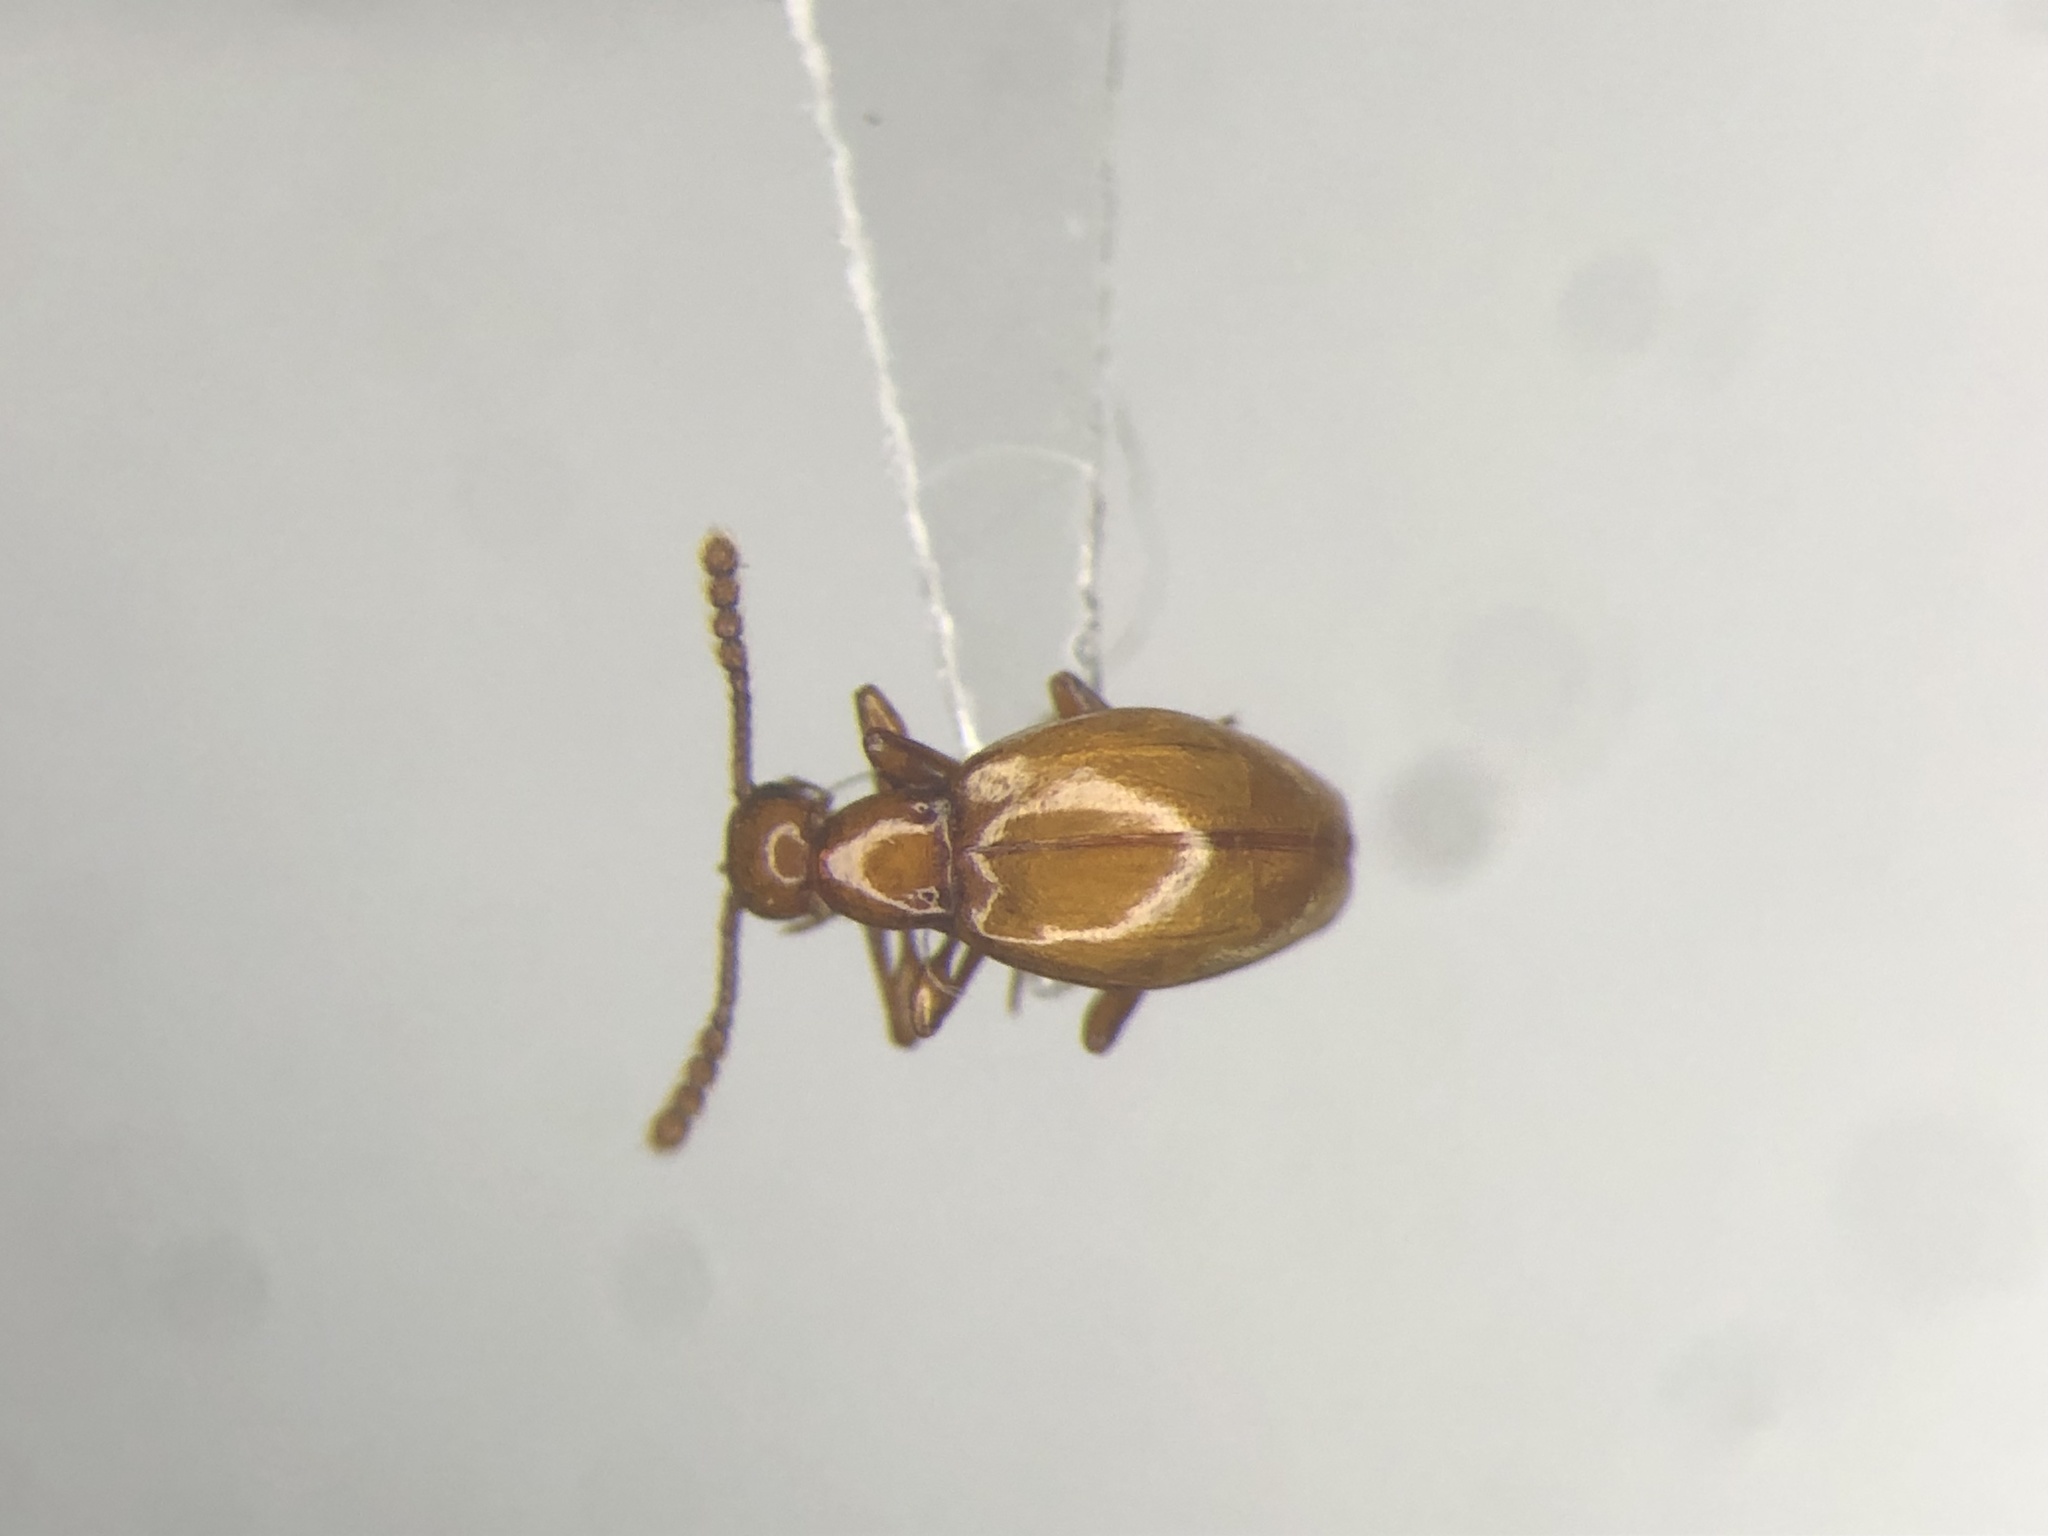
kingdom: Animalia
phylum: Arthropoda
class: Insecta
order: Coleoptera
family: Staphylinidae
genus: Euconnus
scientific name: Euconnus rasus
